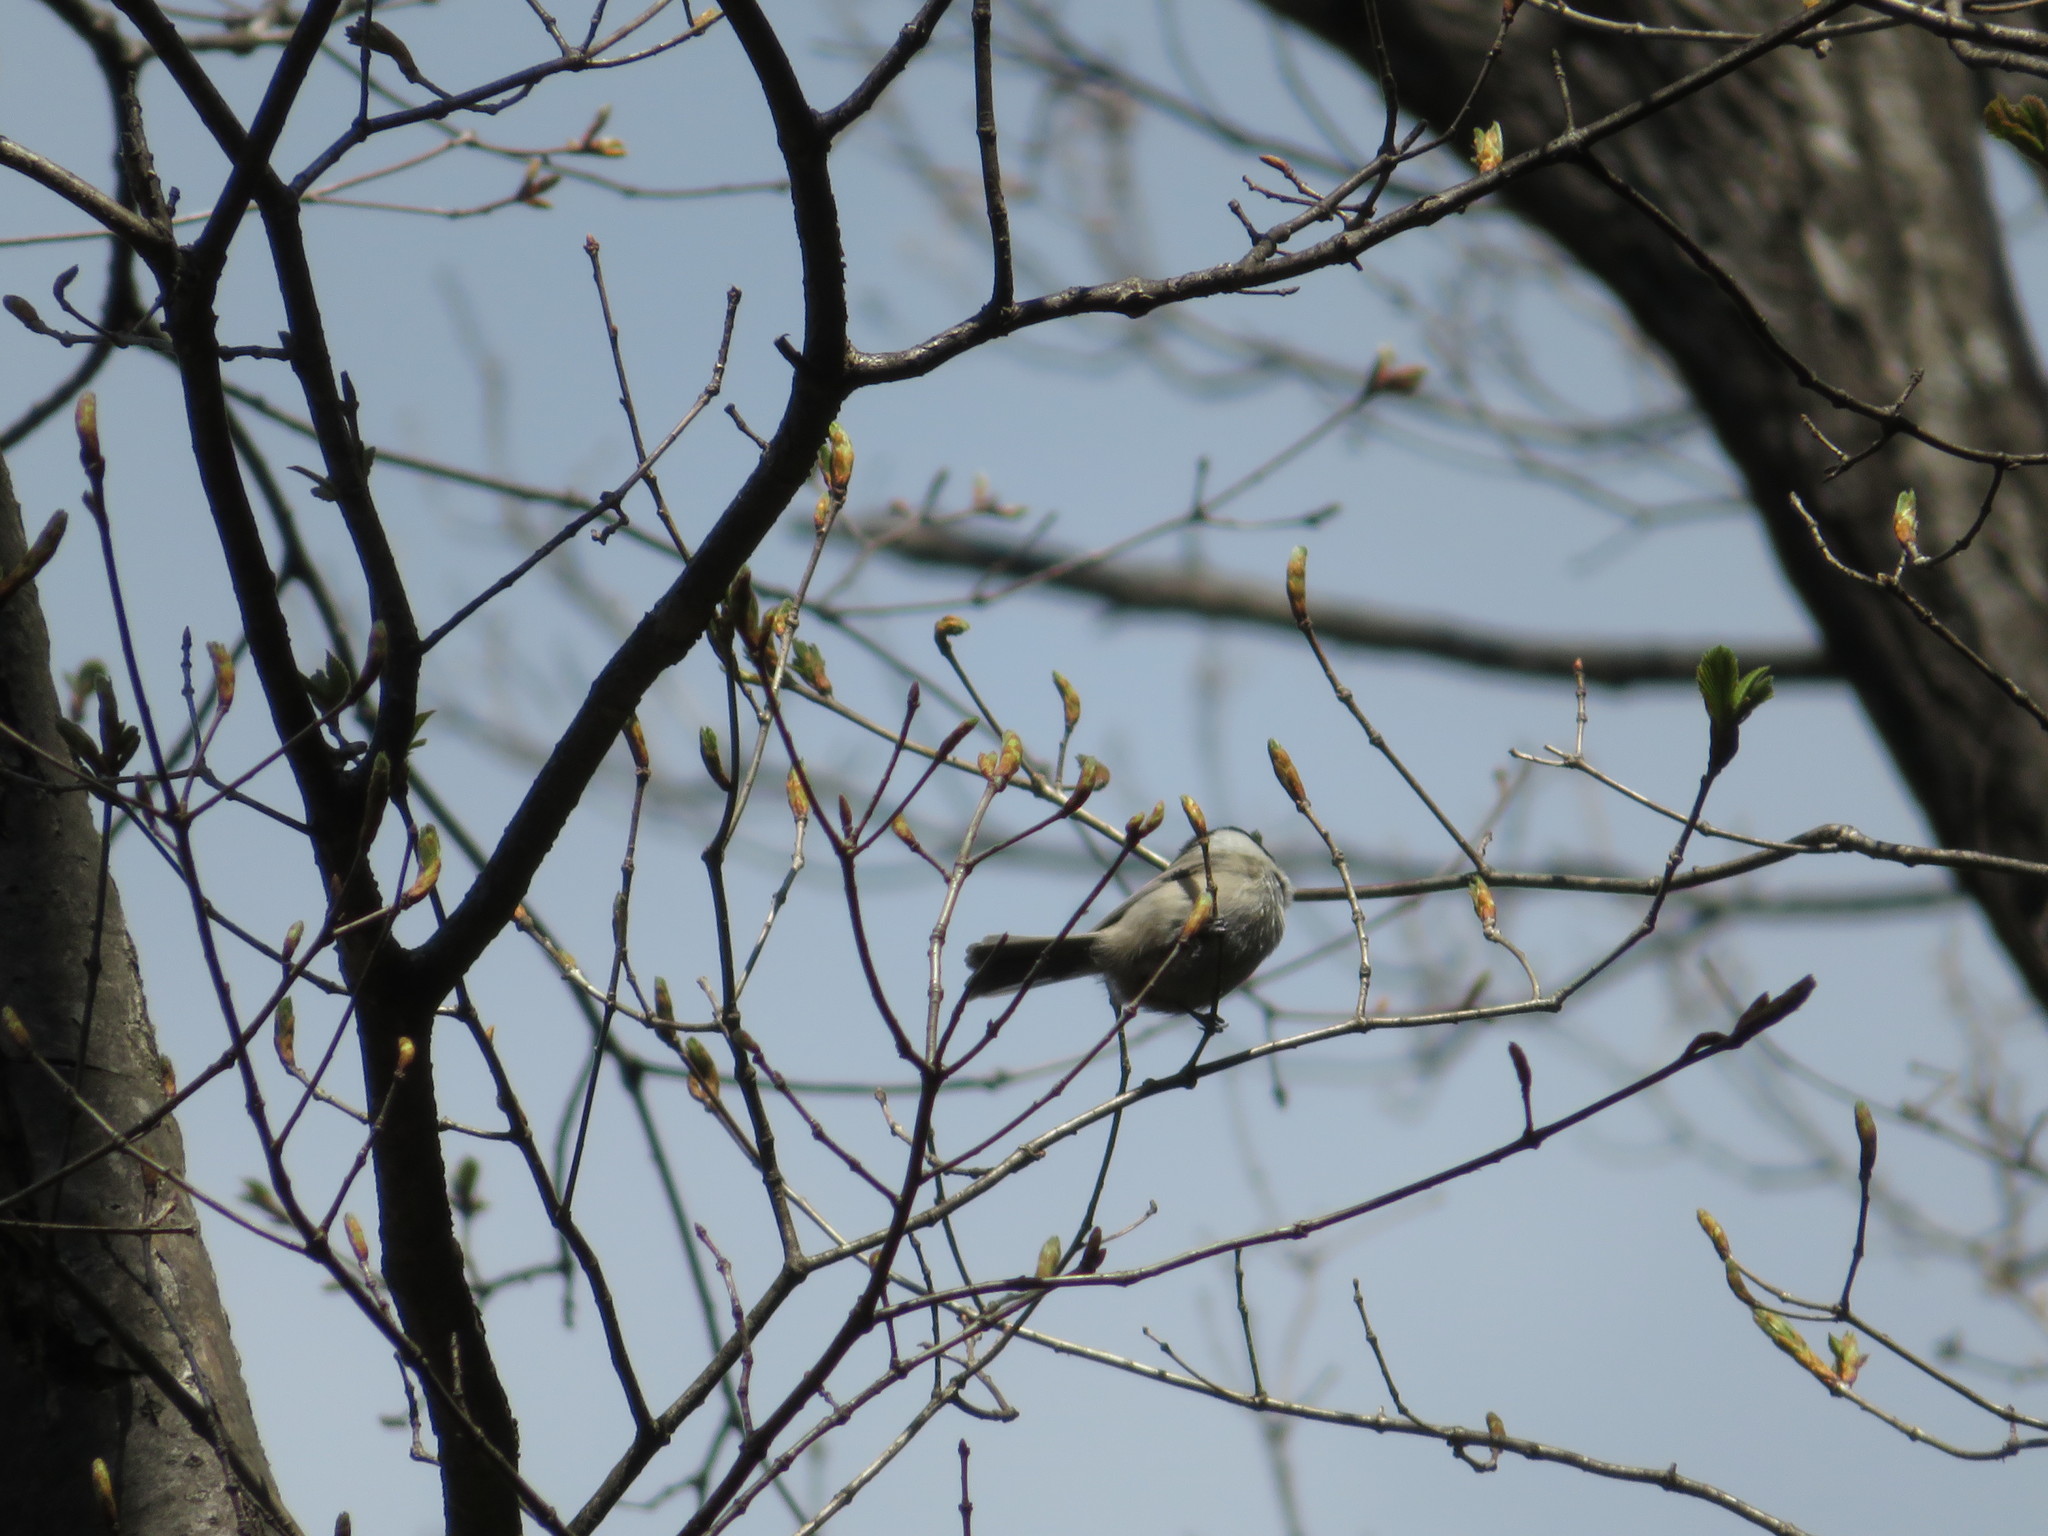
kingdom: Animalia
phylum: Chordata
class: Aves
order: Passeriformes
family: Paridae
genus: Periparus
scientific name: Periparus ater
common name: Coal tit
